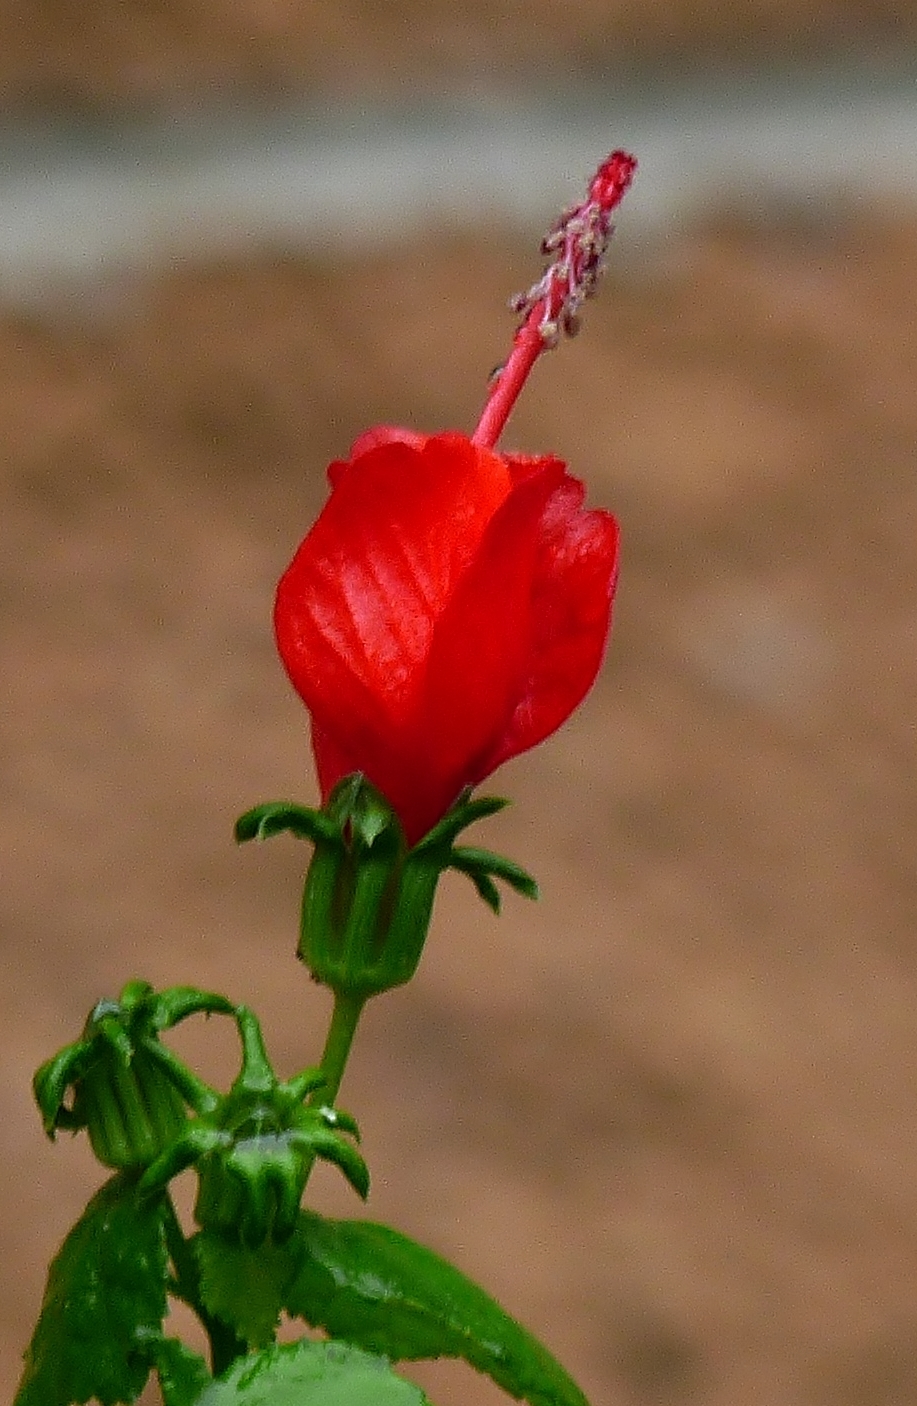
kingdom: Plantae
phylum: Tracheophyta
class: Magnoliopsida
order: Malvales
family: Malvaceae
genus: Malvaviscus
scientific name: Malvaviscus arboreus
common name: Wax mallow
